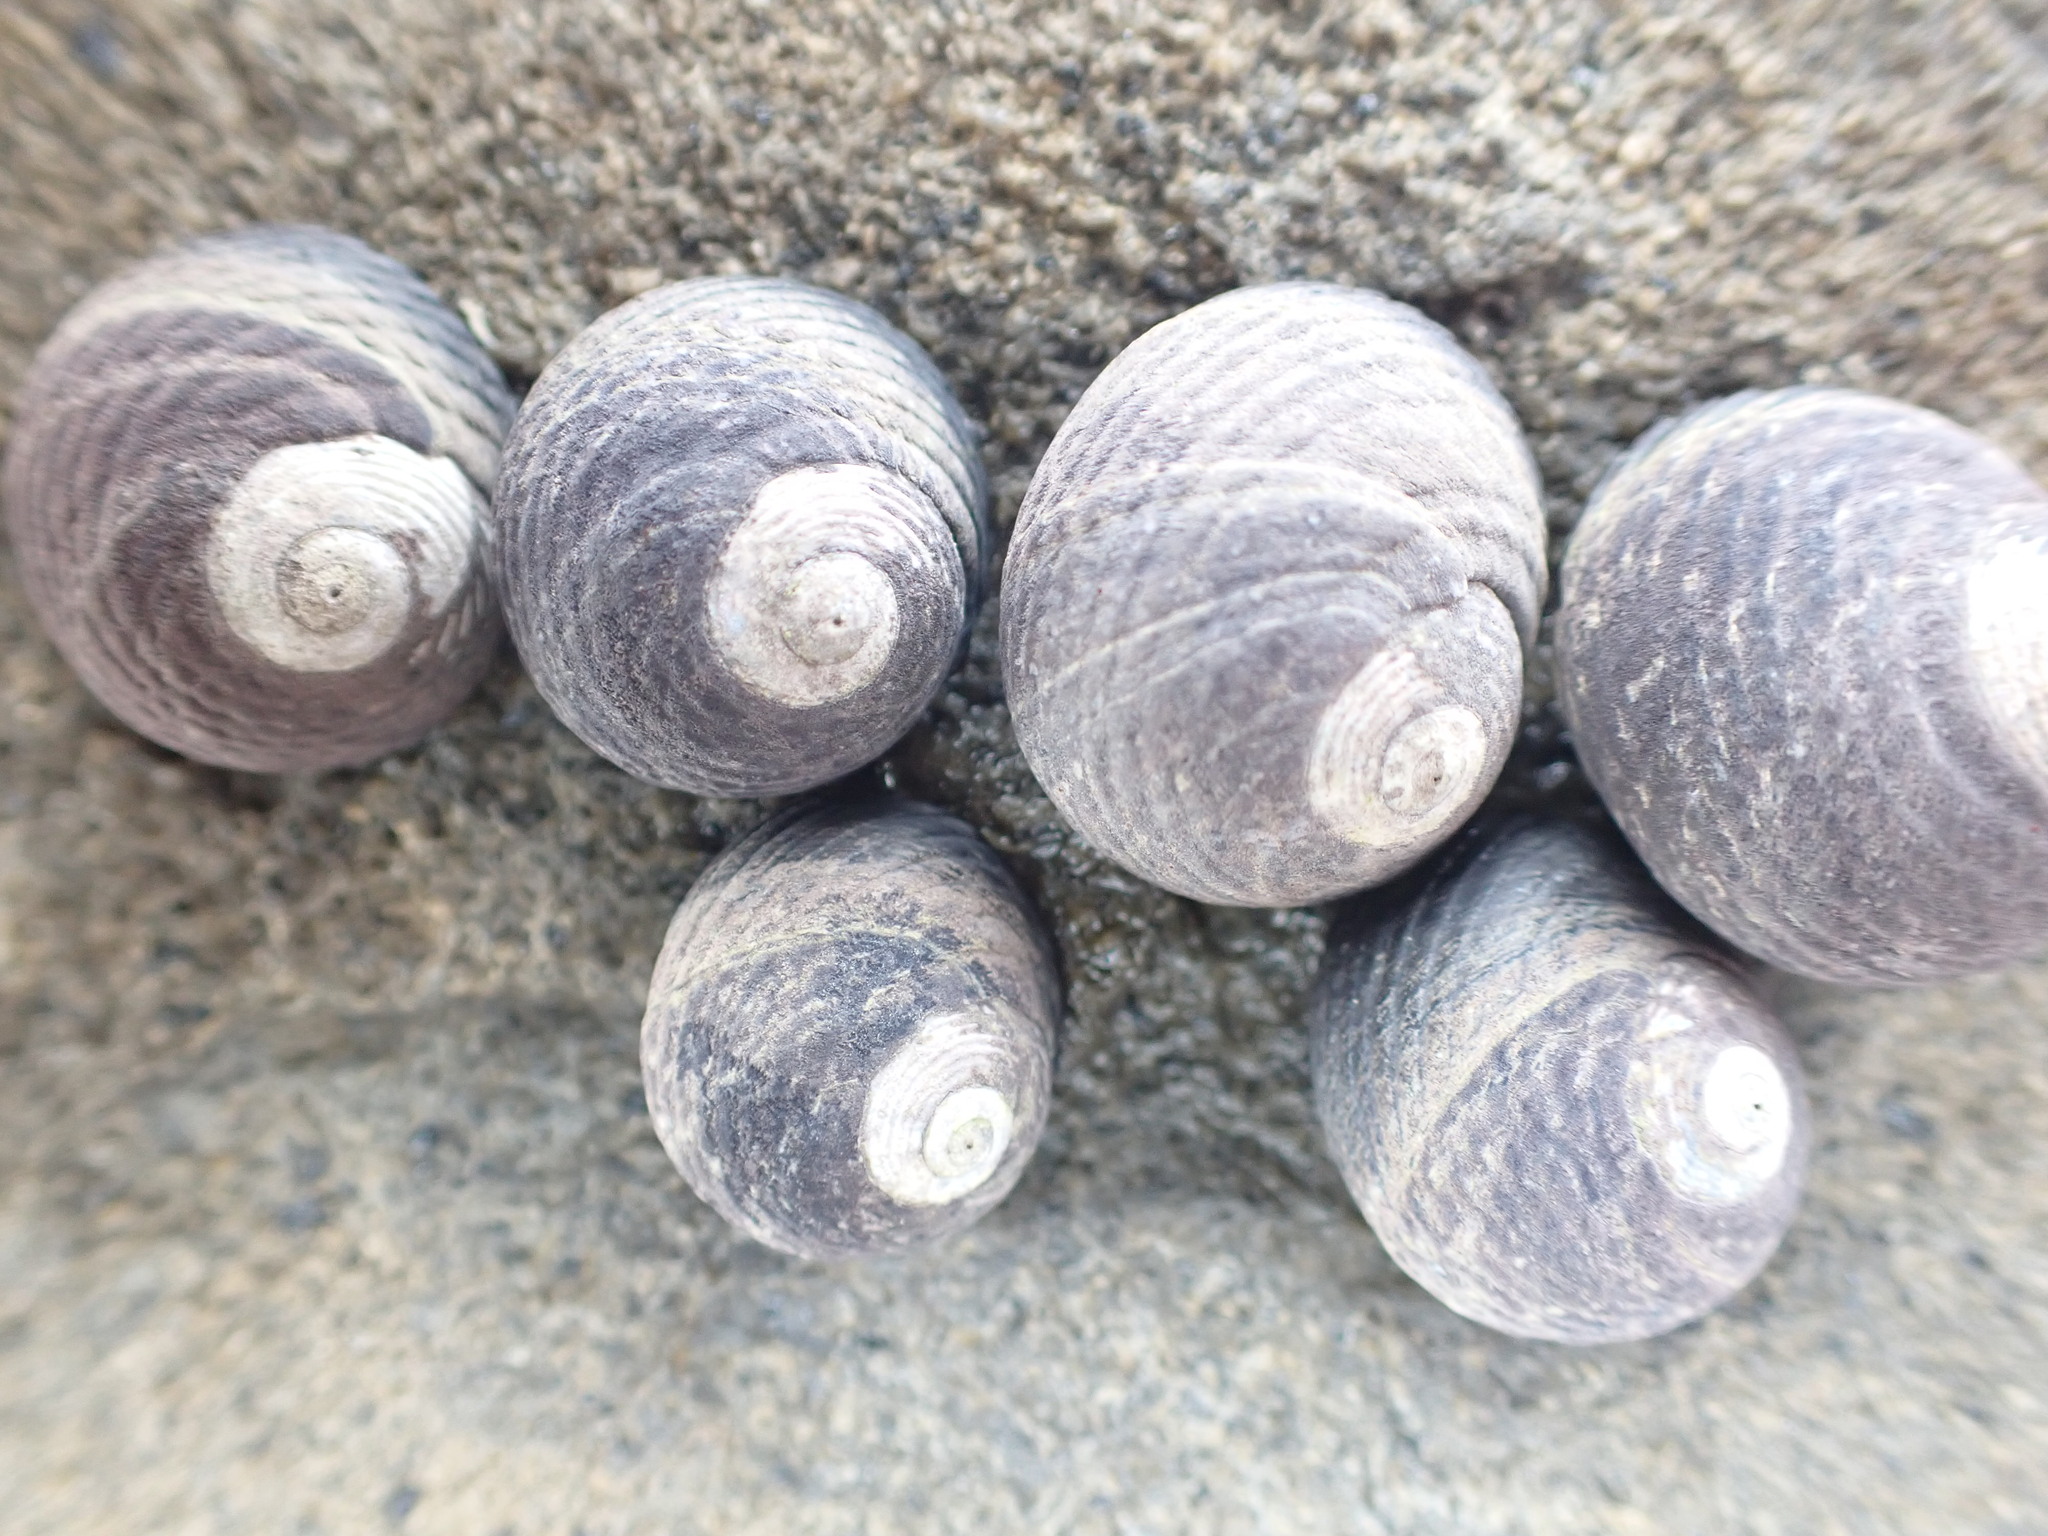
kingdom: Animalia
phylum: Mollusca
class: Gastropoda
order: Trochida
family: Trochidae
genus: Diloma
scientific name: Diloma zelandicum
